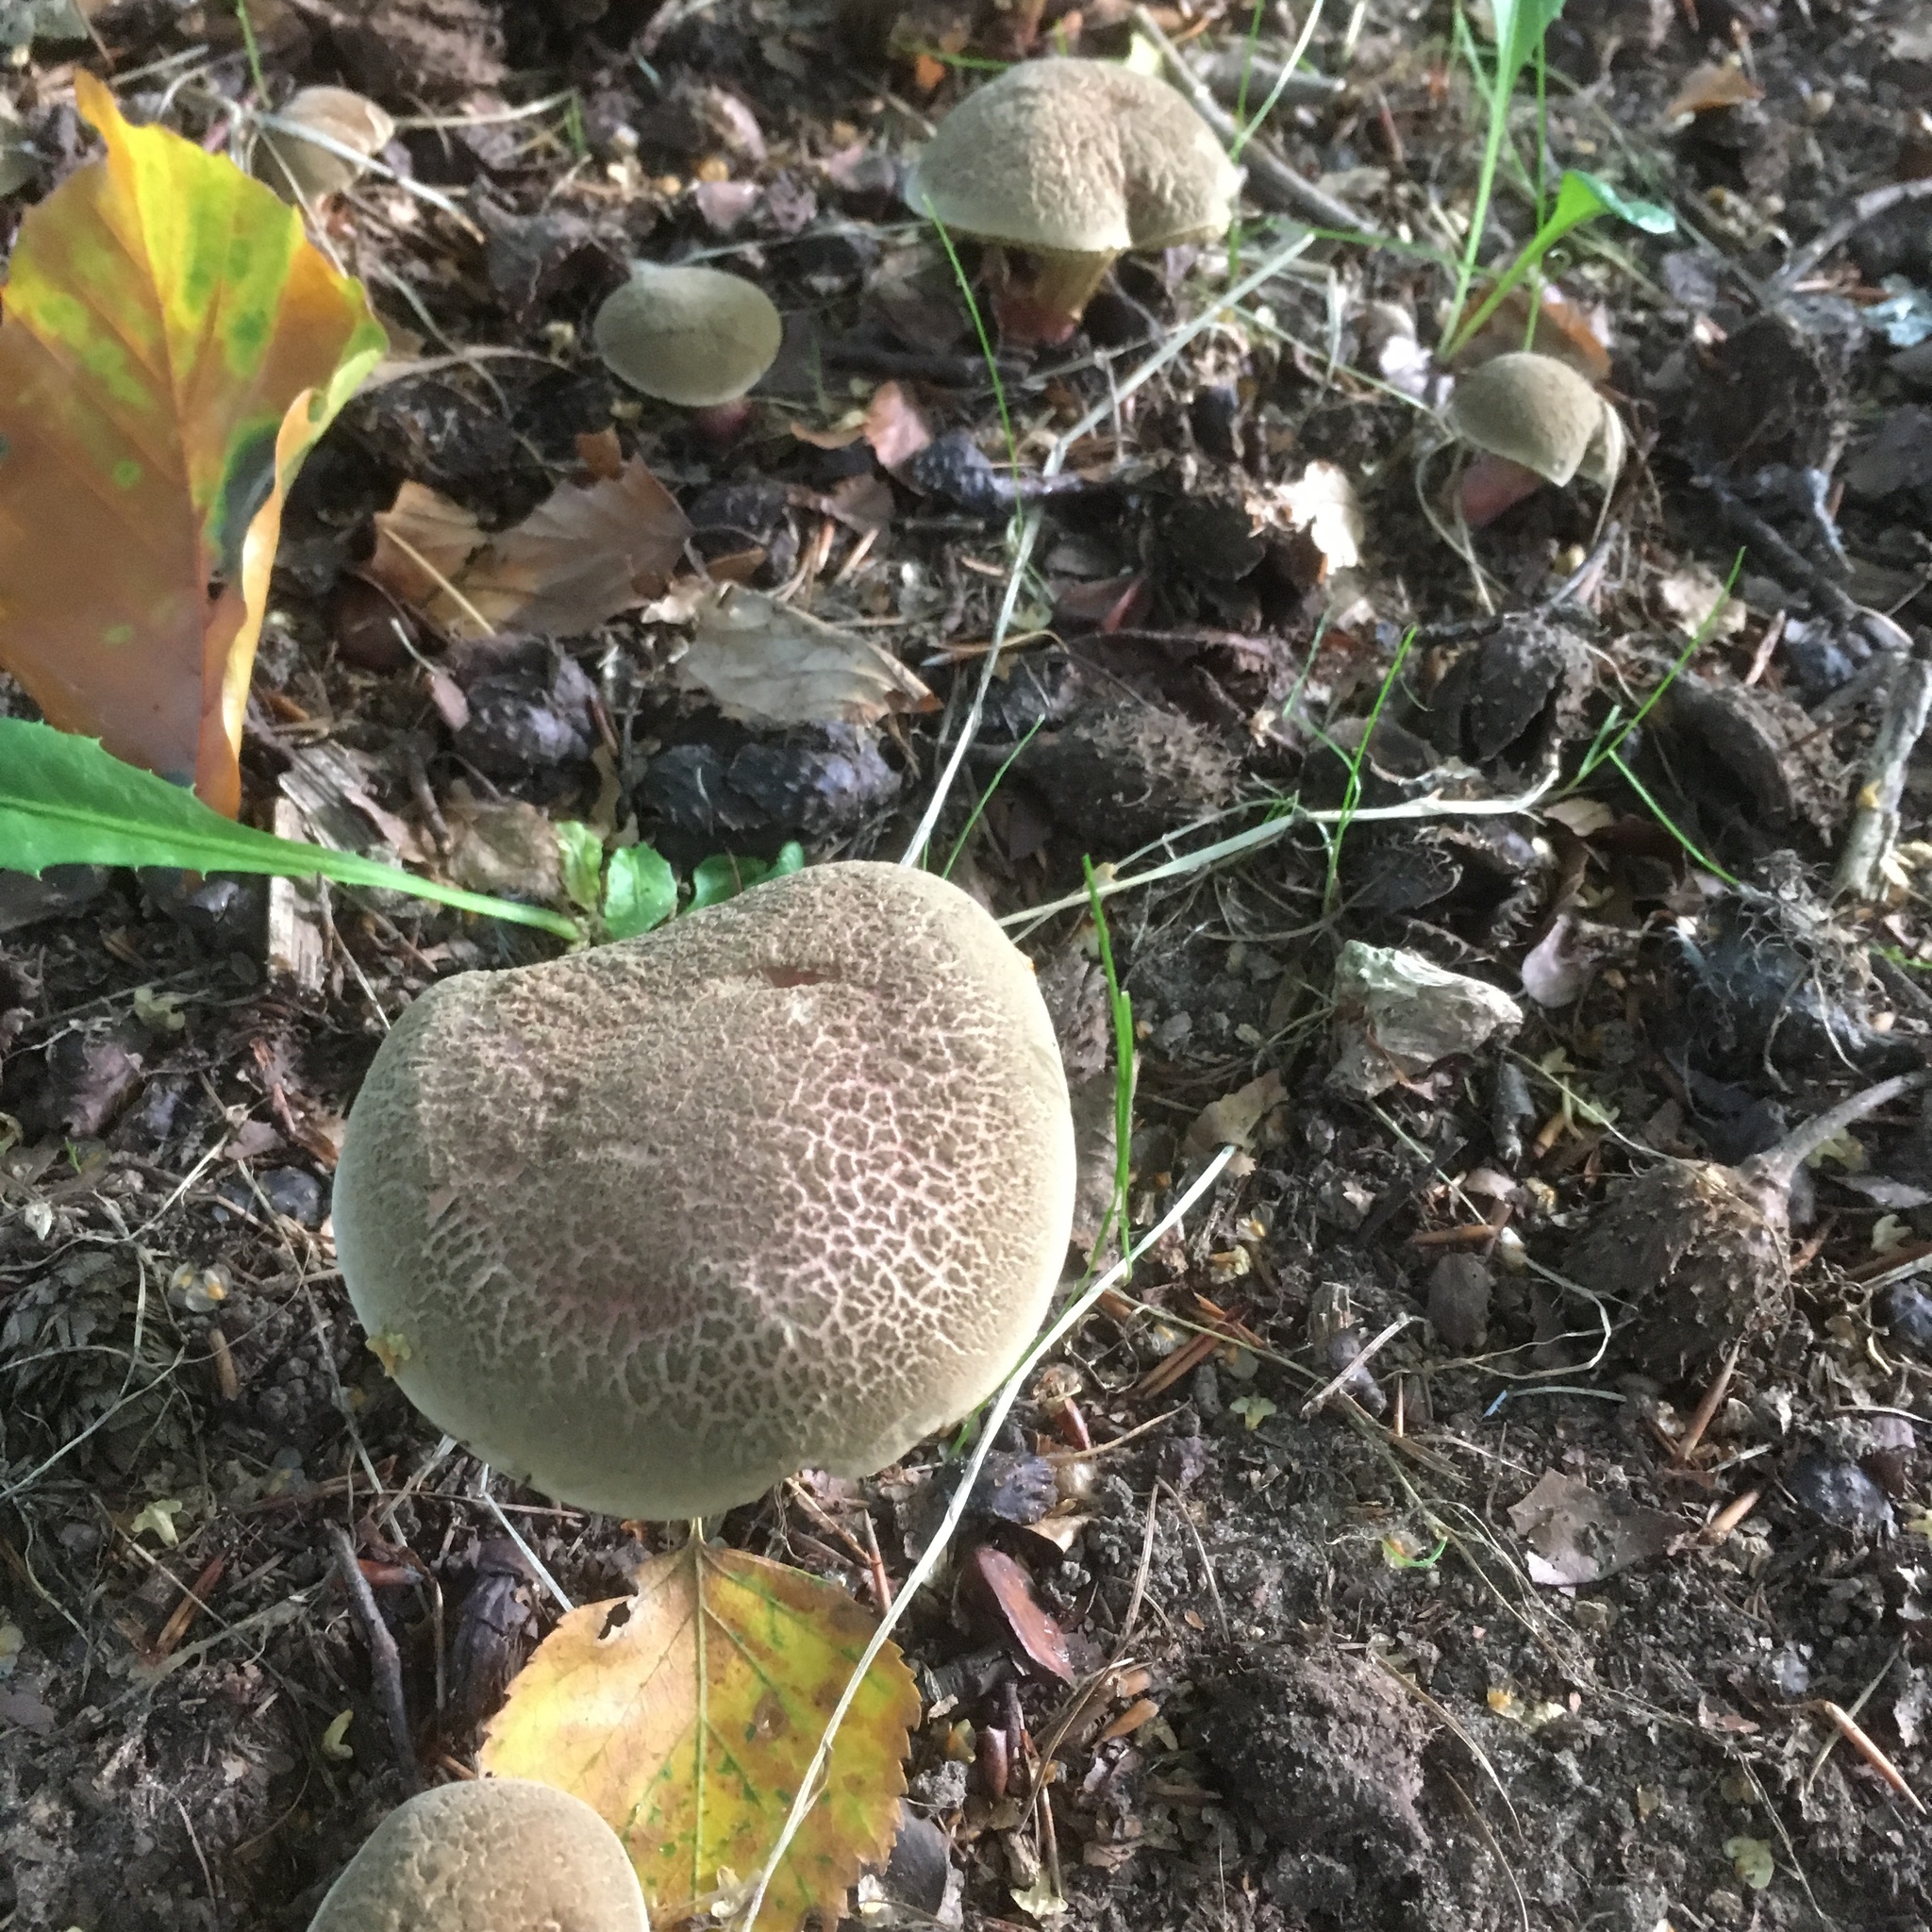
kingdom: Fungi
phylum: Basidiomycota
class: Agaricomycetes
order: Boletales
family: Boletaceae
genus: Xerocomellus
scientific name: Xerocomellus chrysenteron
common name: Red-cracking bolete
